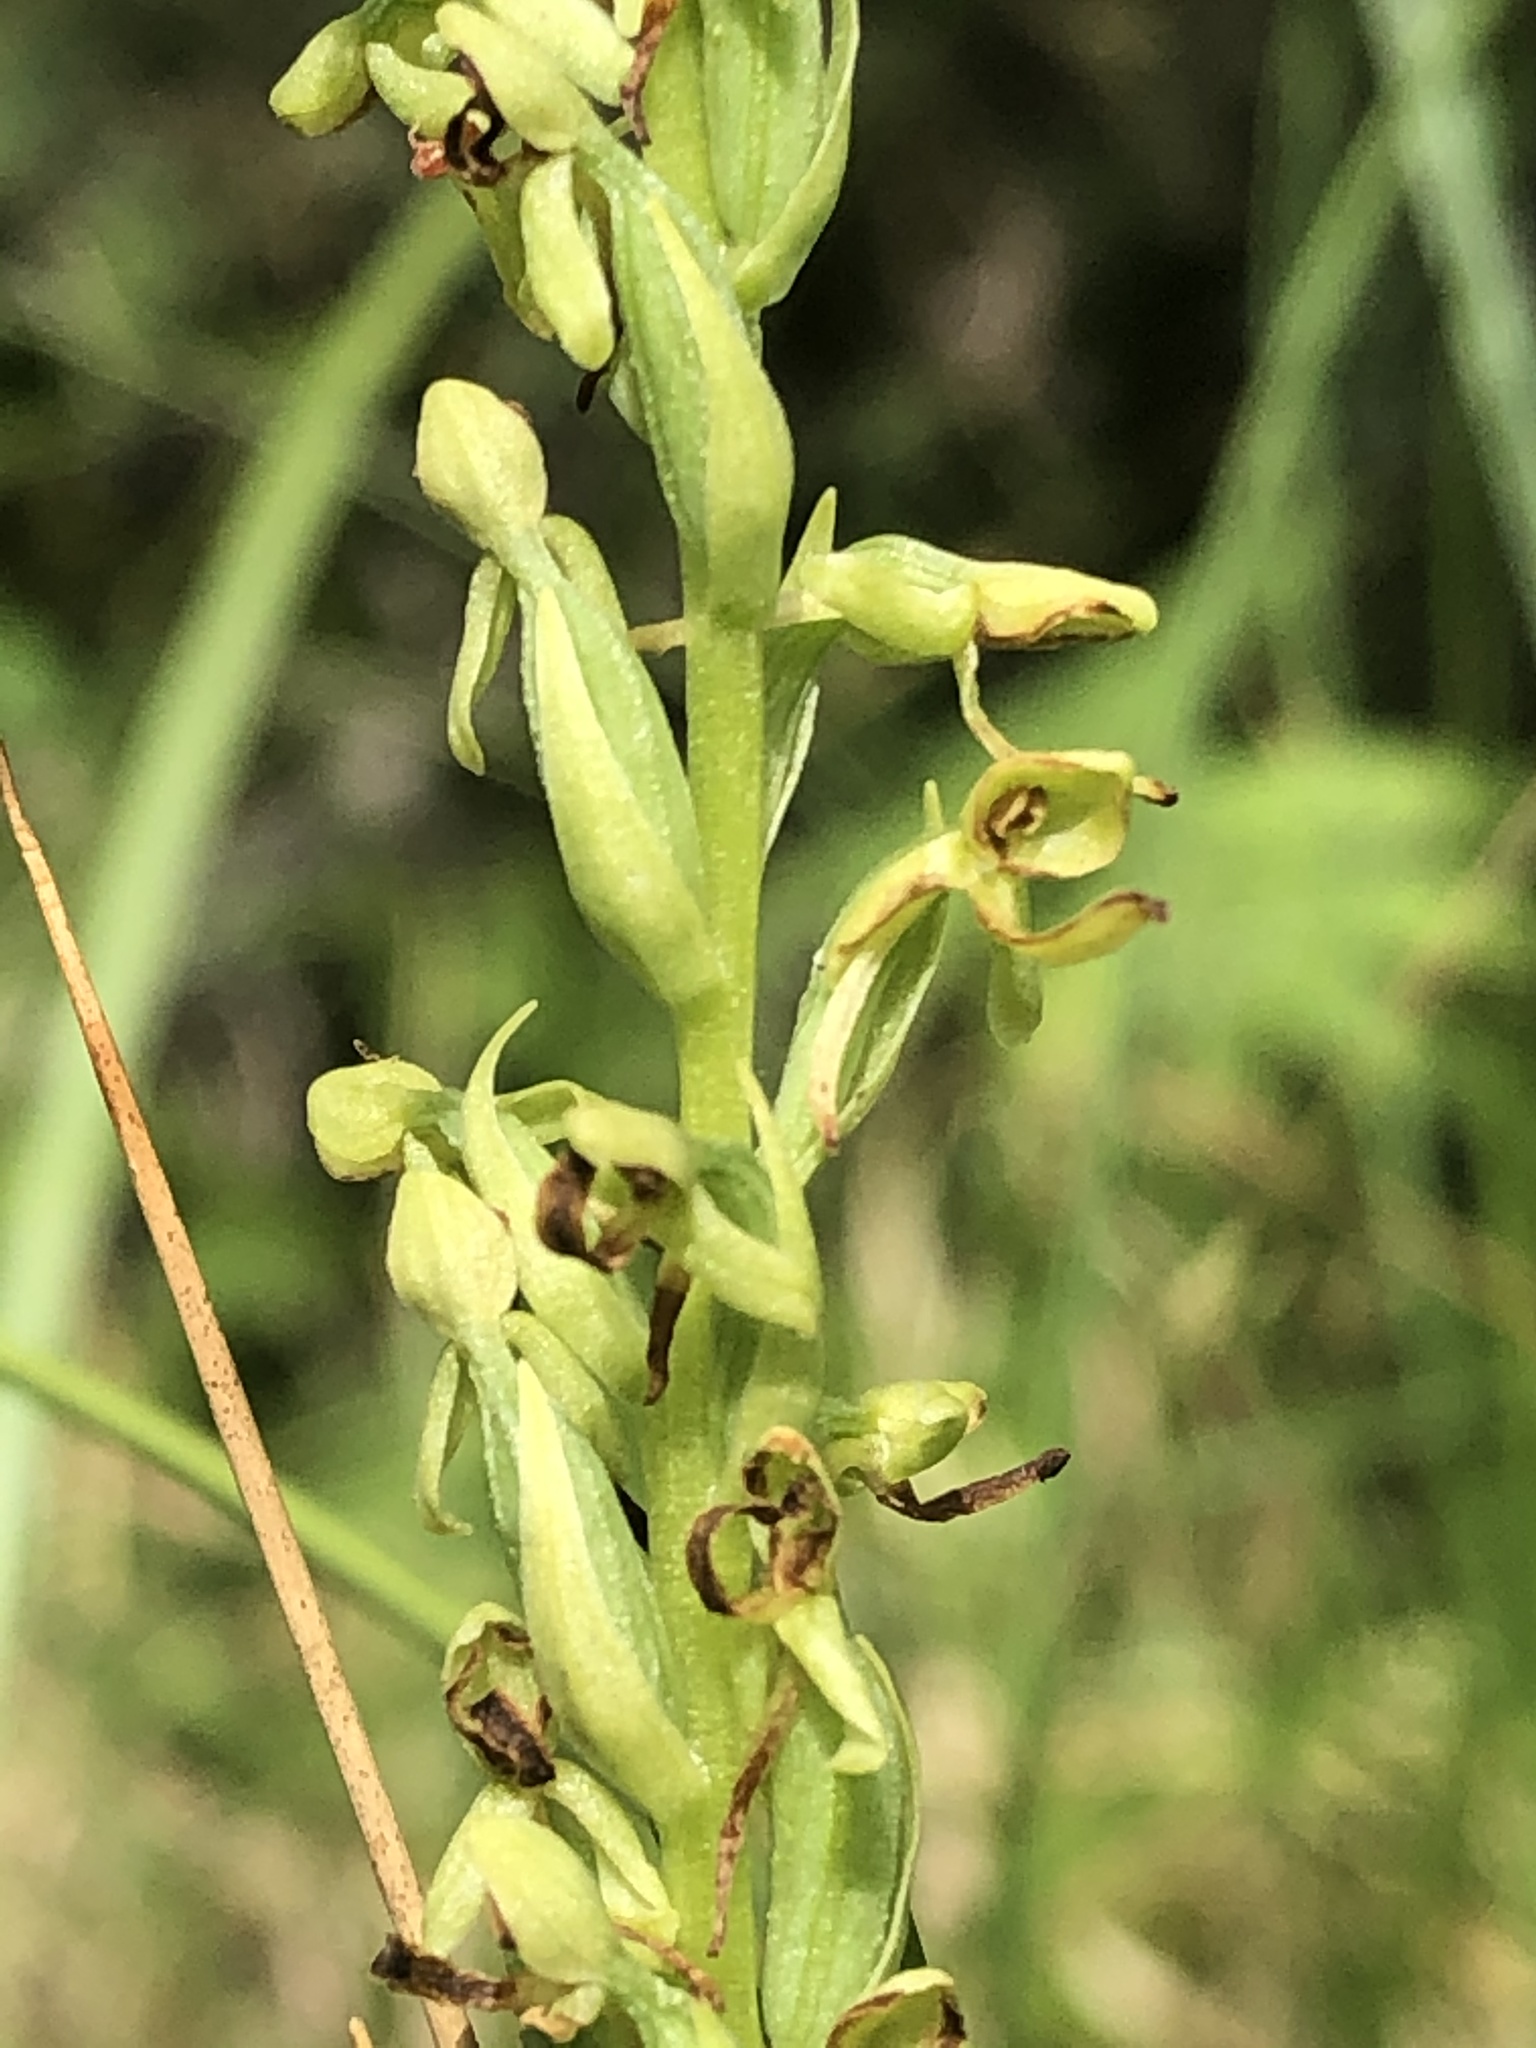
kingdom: Plantae
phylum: Tracheophyta
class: Liliopsida
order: Asparagales
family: Orchidaceae
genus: Platanthera
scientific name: Platanthera sparsiflora
